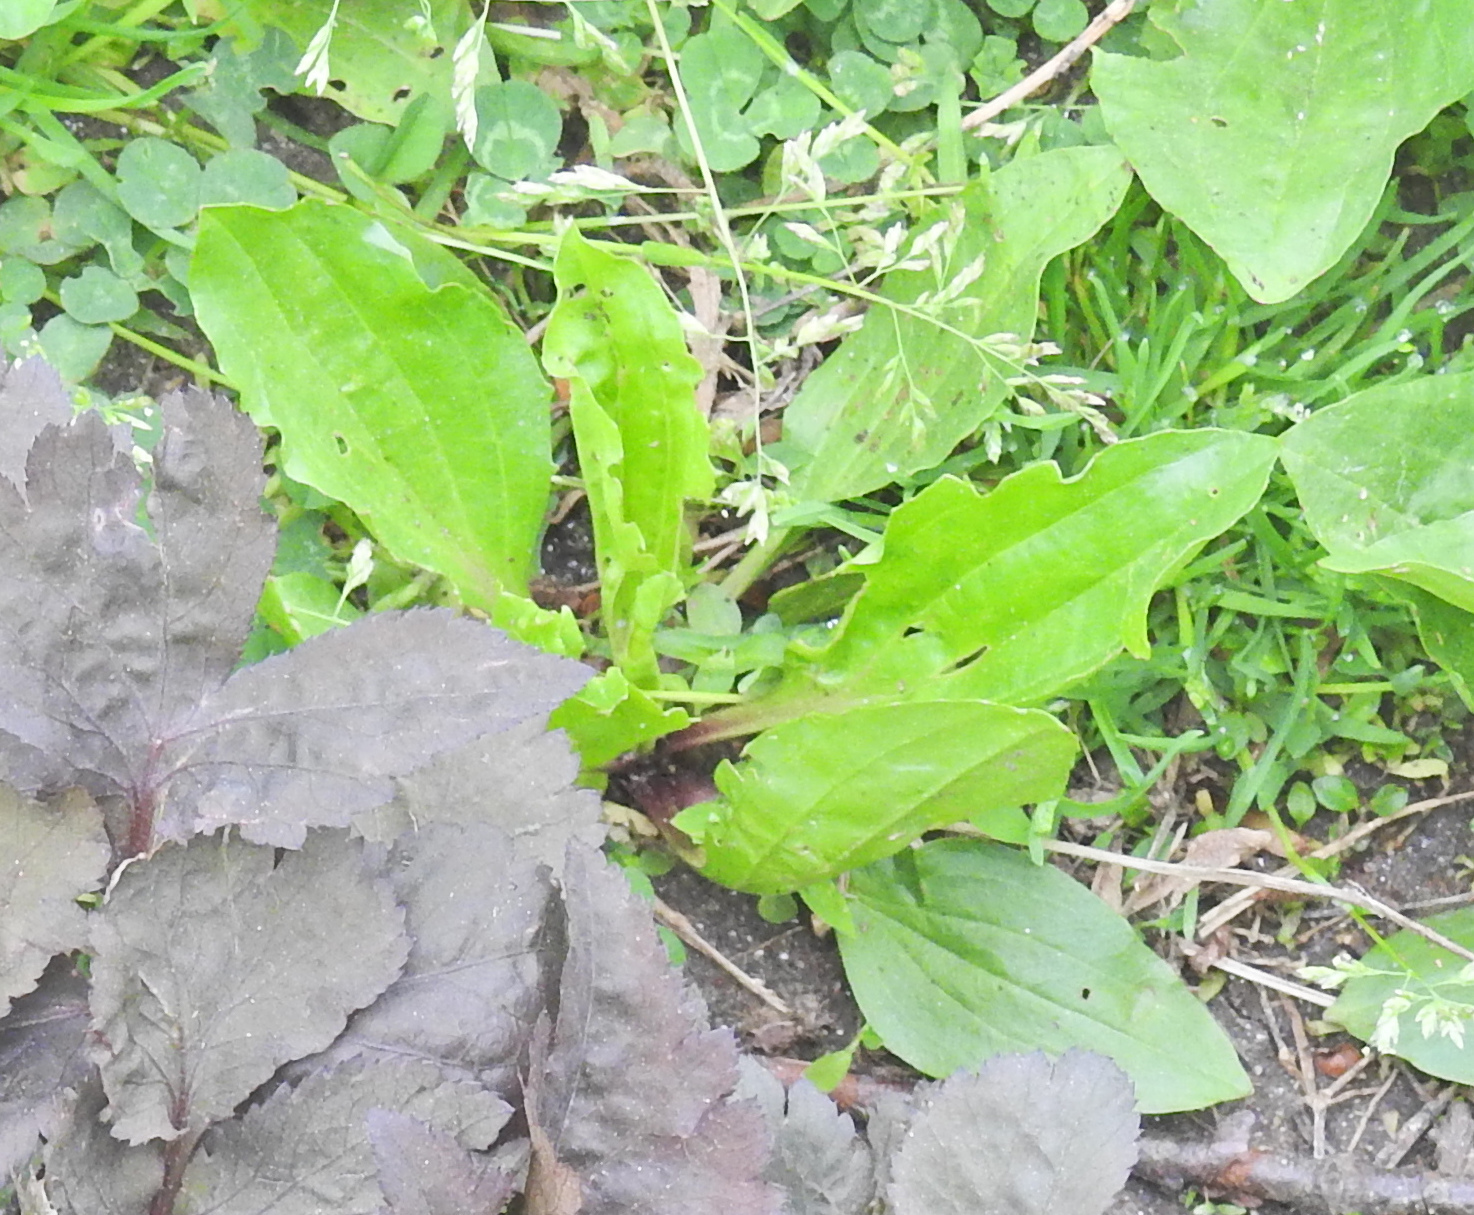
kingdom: Plantae
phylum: Tracheophyta
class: Magnoliopsida
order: Lamiales
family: Plantaginaceae
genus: Plantago
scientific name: Plantago rugelii
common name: American plantain
